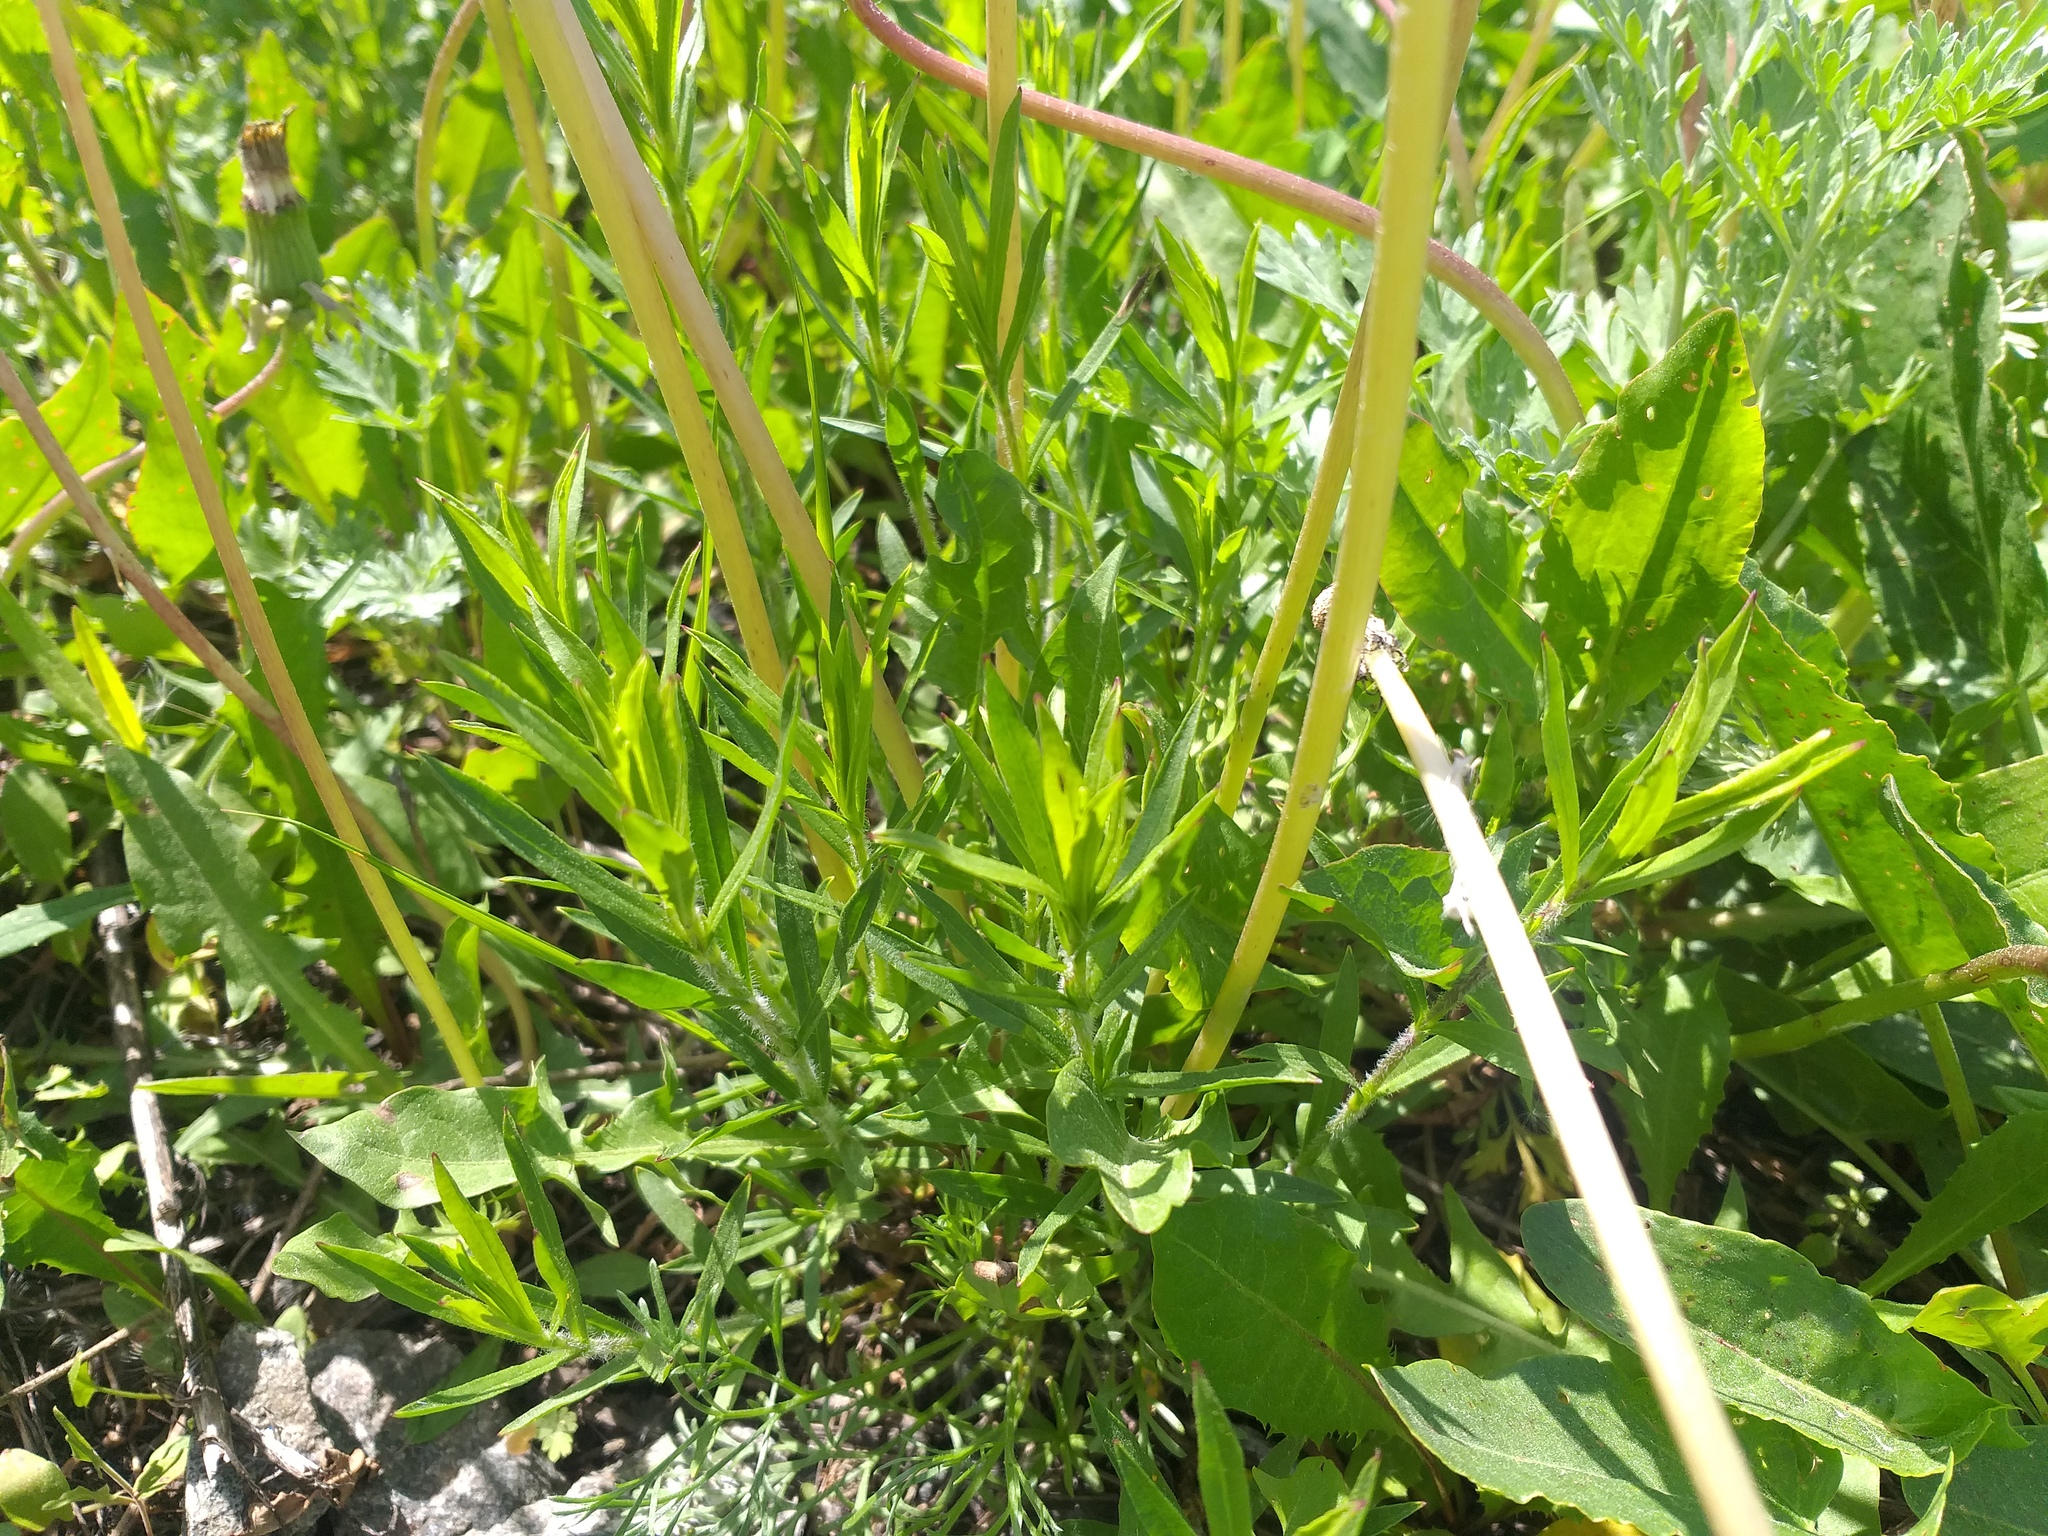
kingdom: Plantae
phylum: Tracheophyta
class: Magnoliopsida
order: Caryophyllales
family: Caryophyllaceae
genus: Silene
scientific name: Silene tatarica
